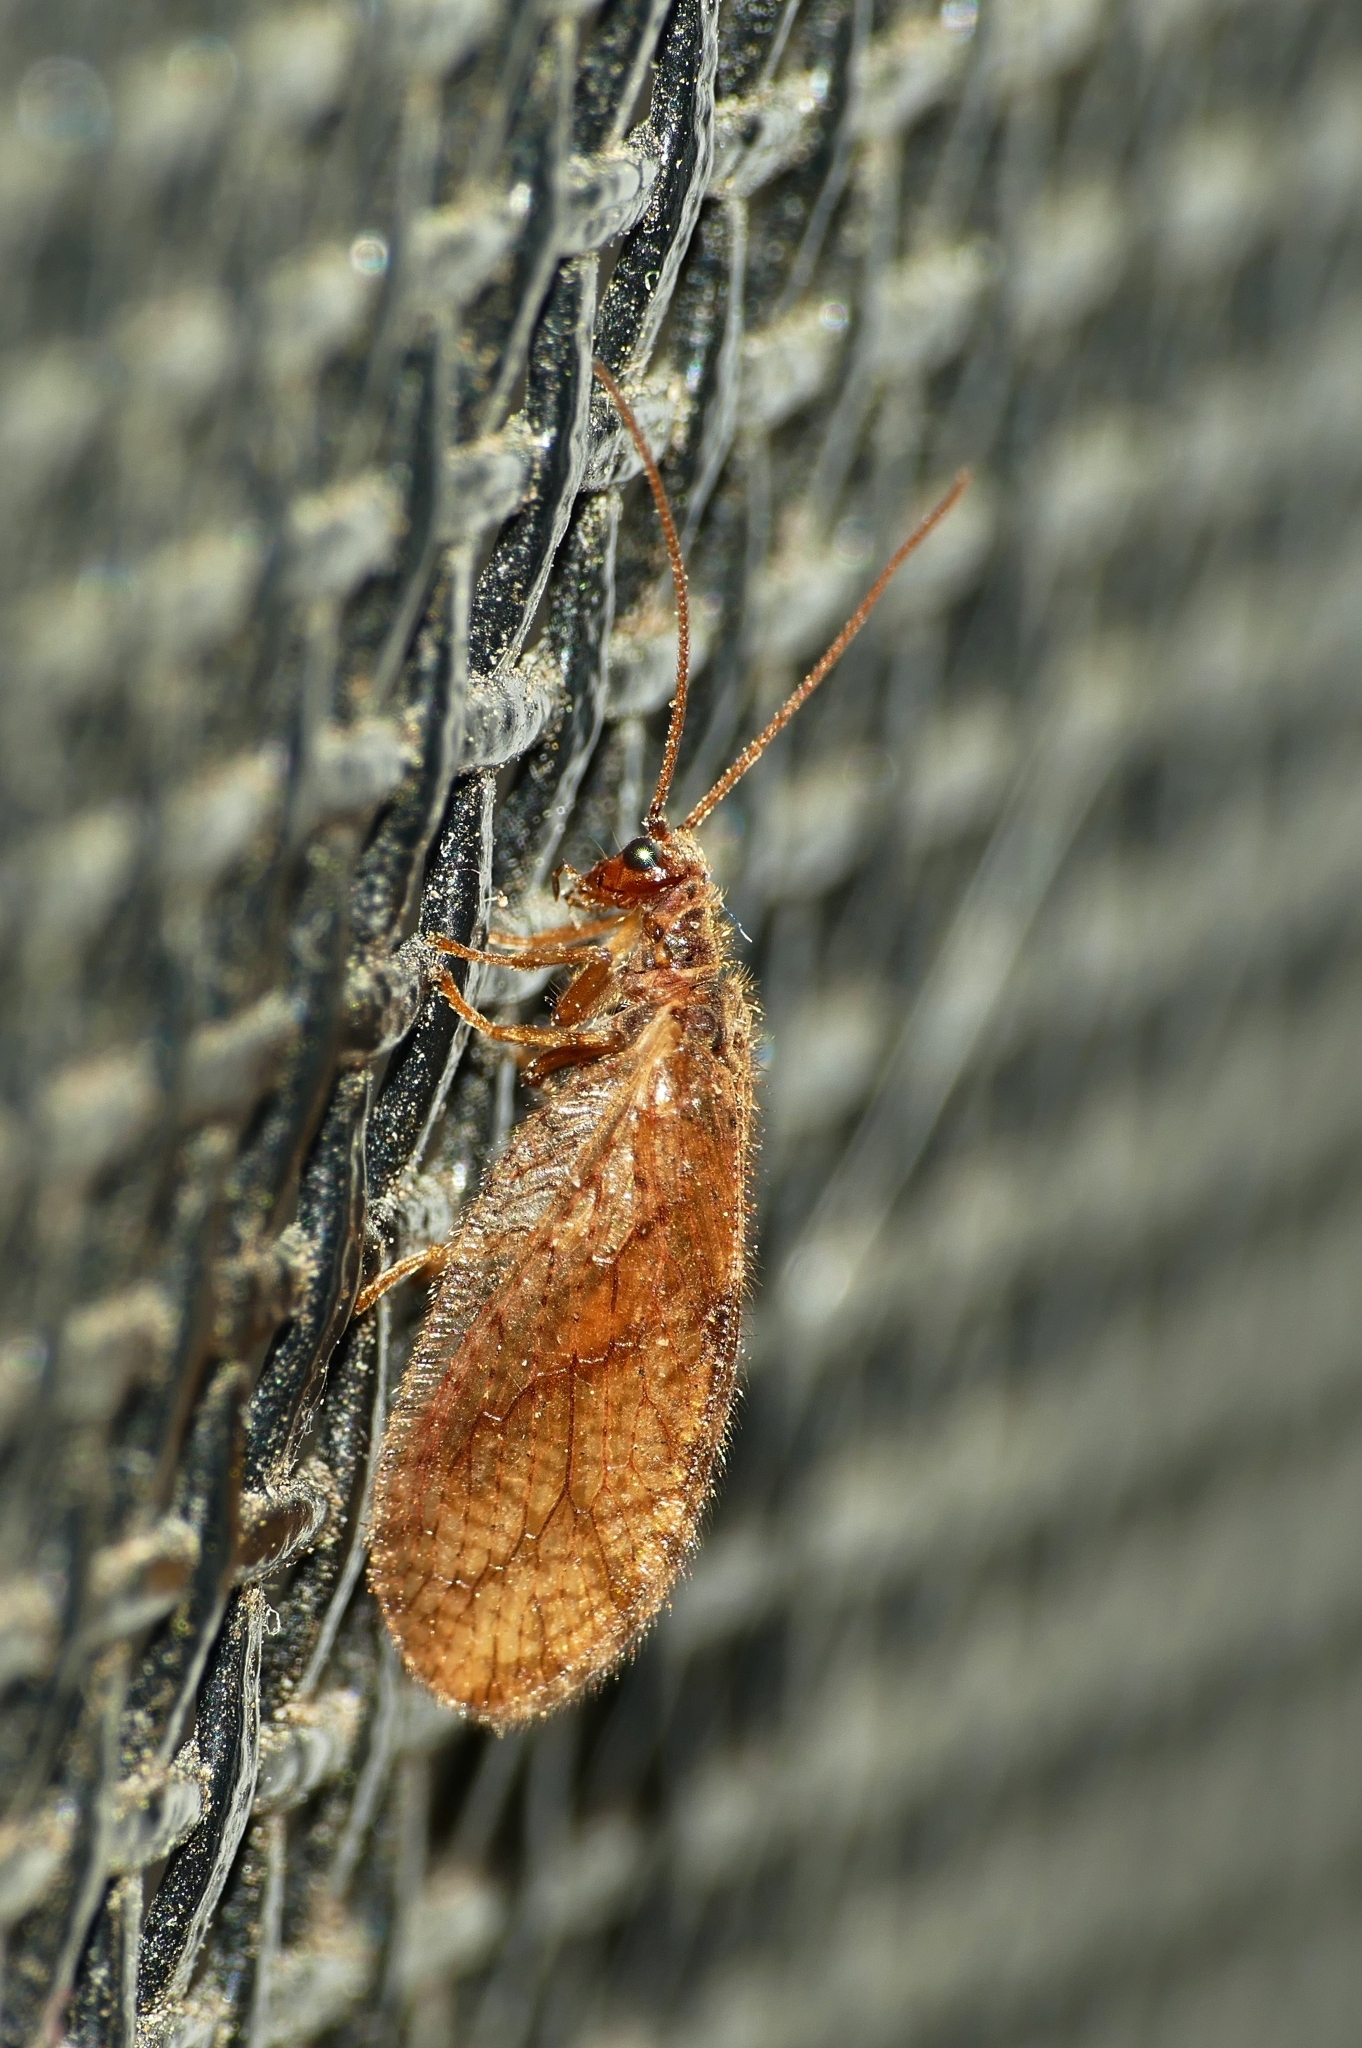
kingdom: Animalia
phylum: Arthropoda
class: Insecta
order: Neuroptera
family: Hemerobiidae
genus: Micromus
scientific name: Micromus angulatus
